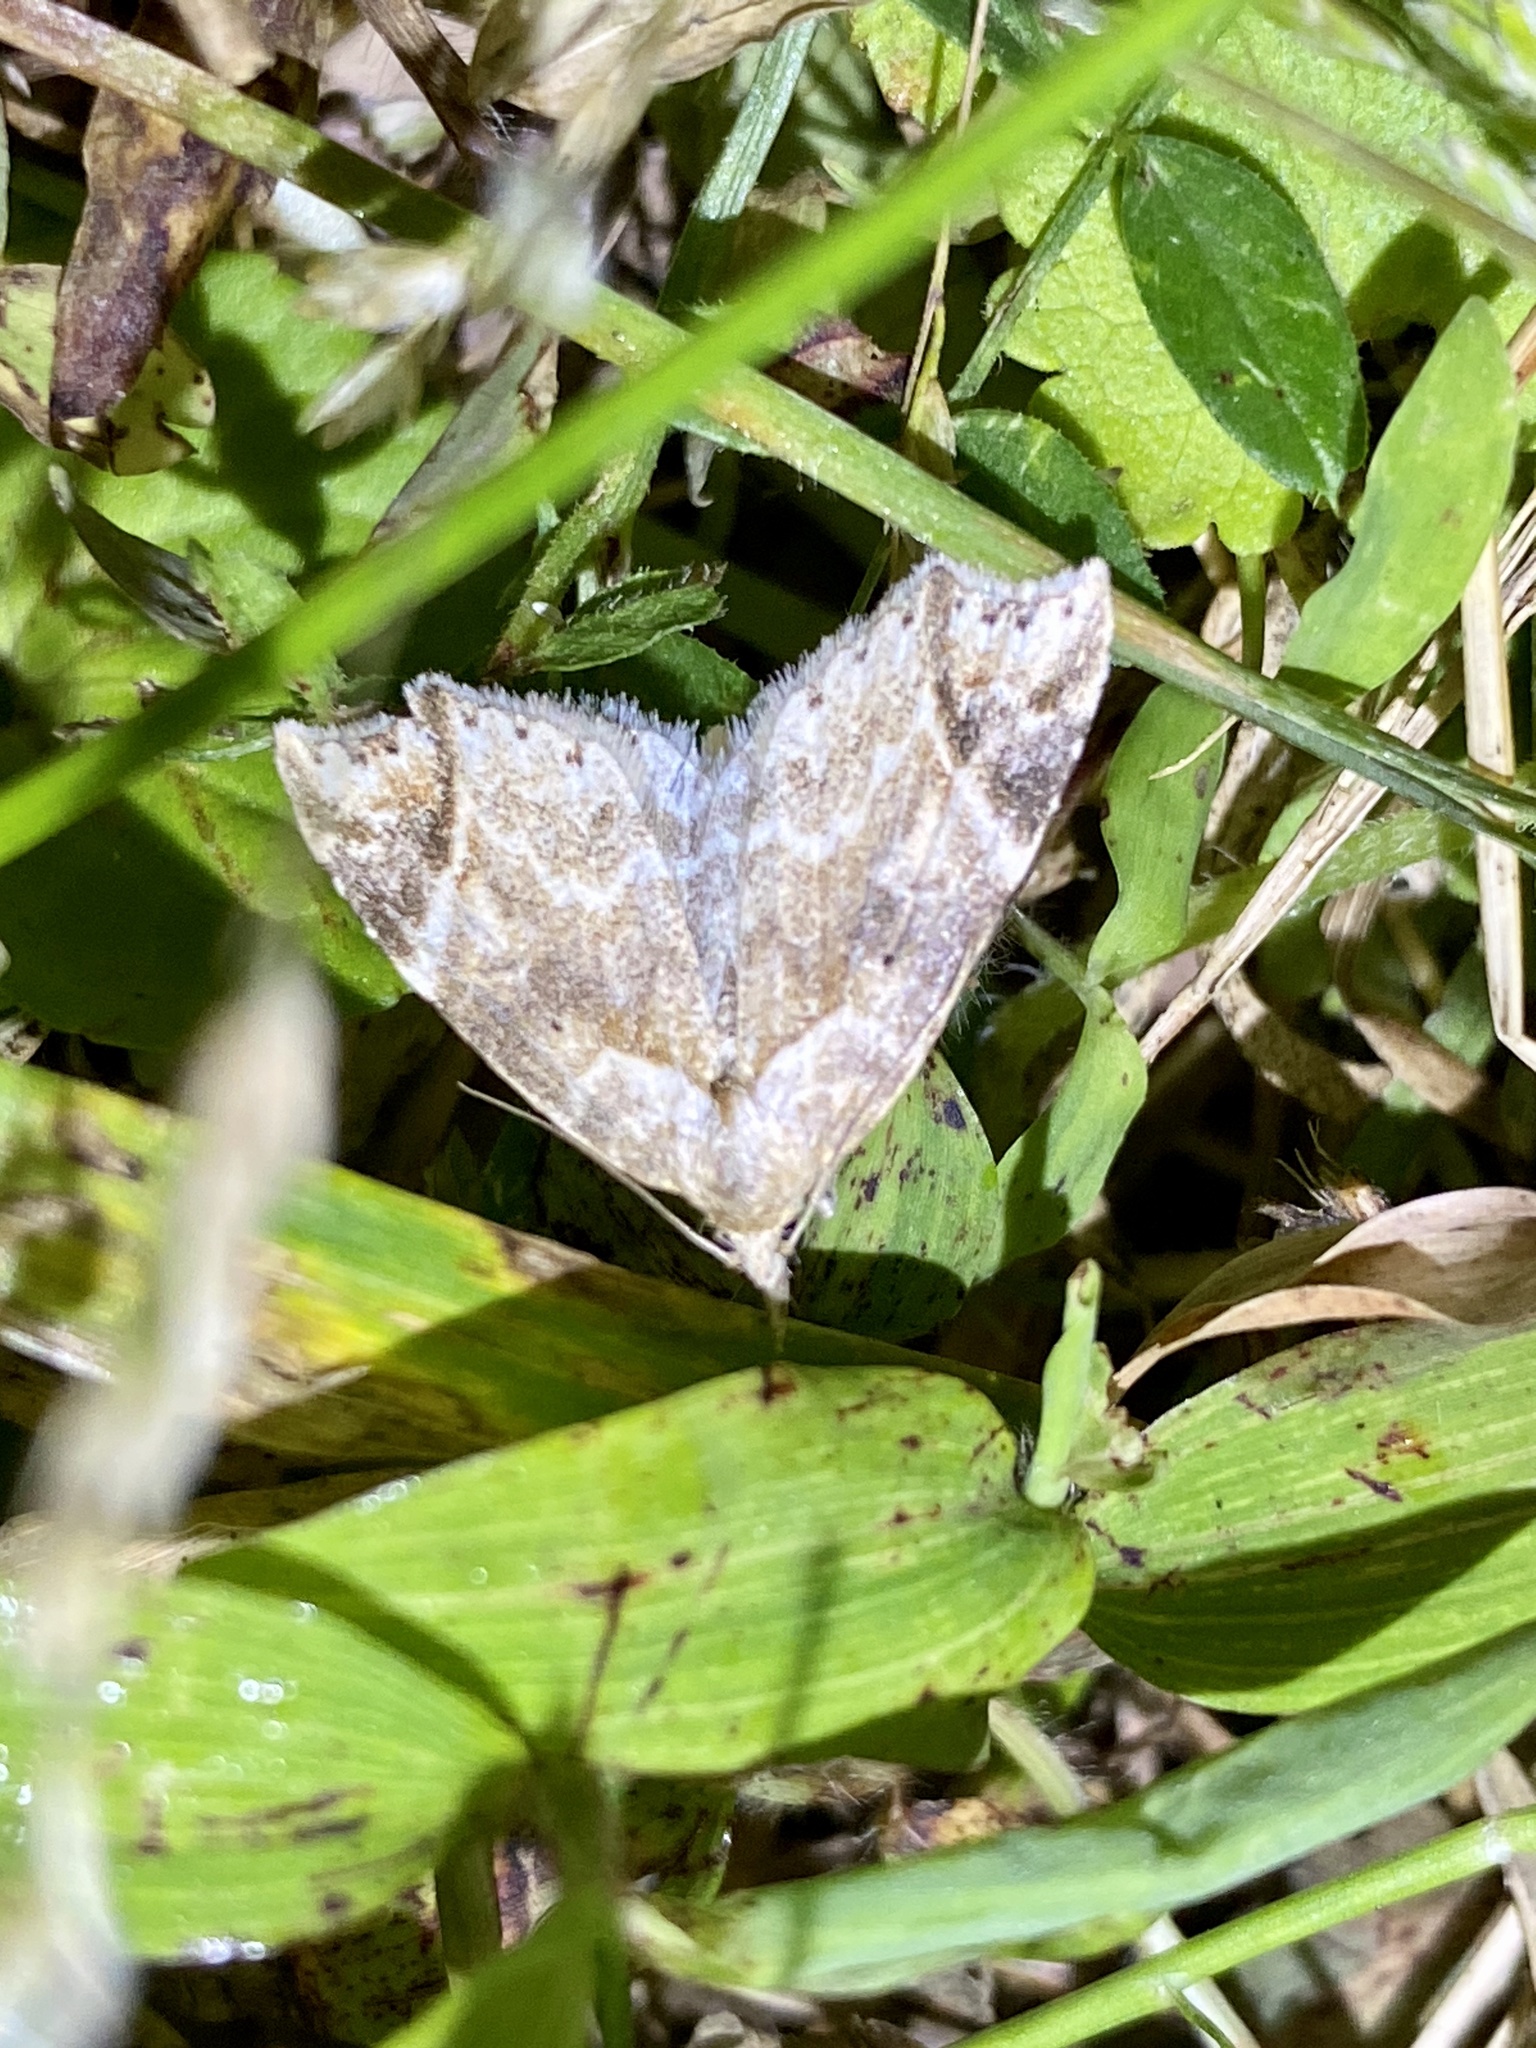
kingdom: Animalia
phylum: Arthropoda
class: Insecta
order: Lepidoptera
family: Erebidae
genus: Olulis
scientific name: Olulis
